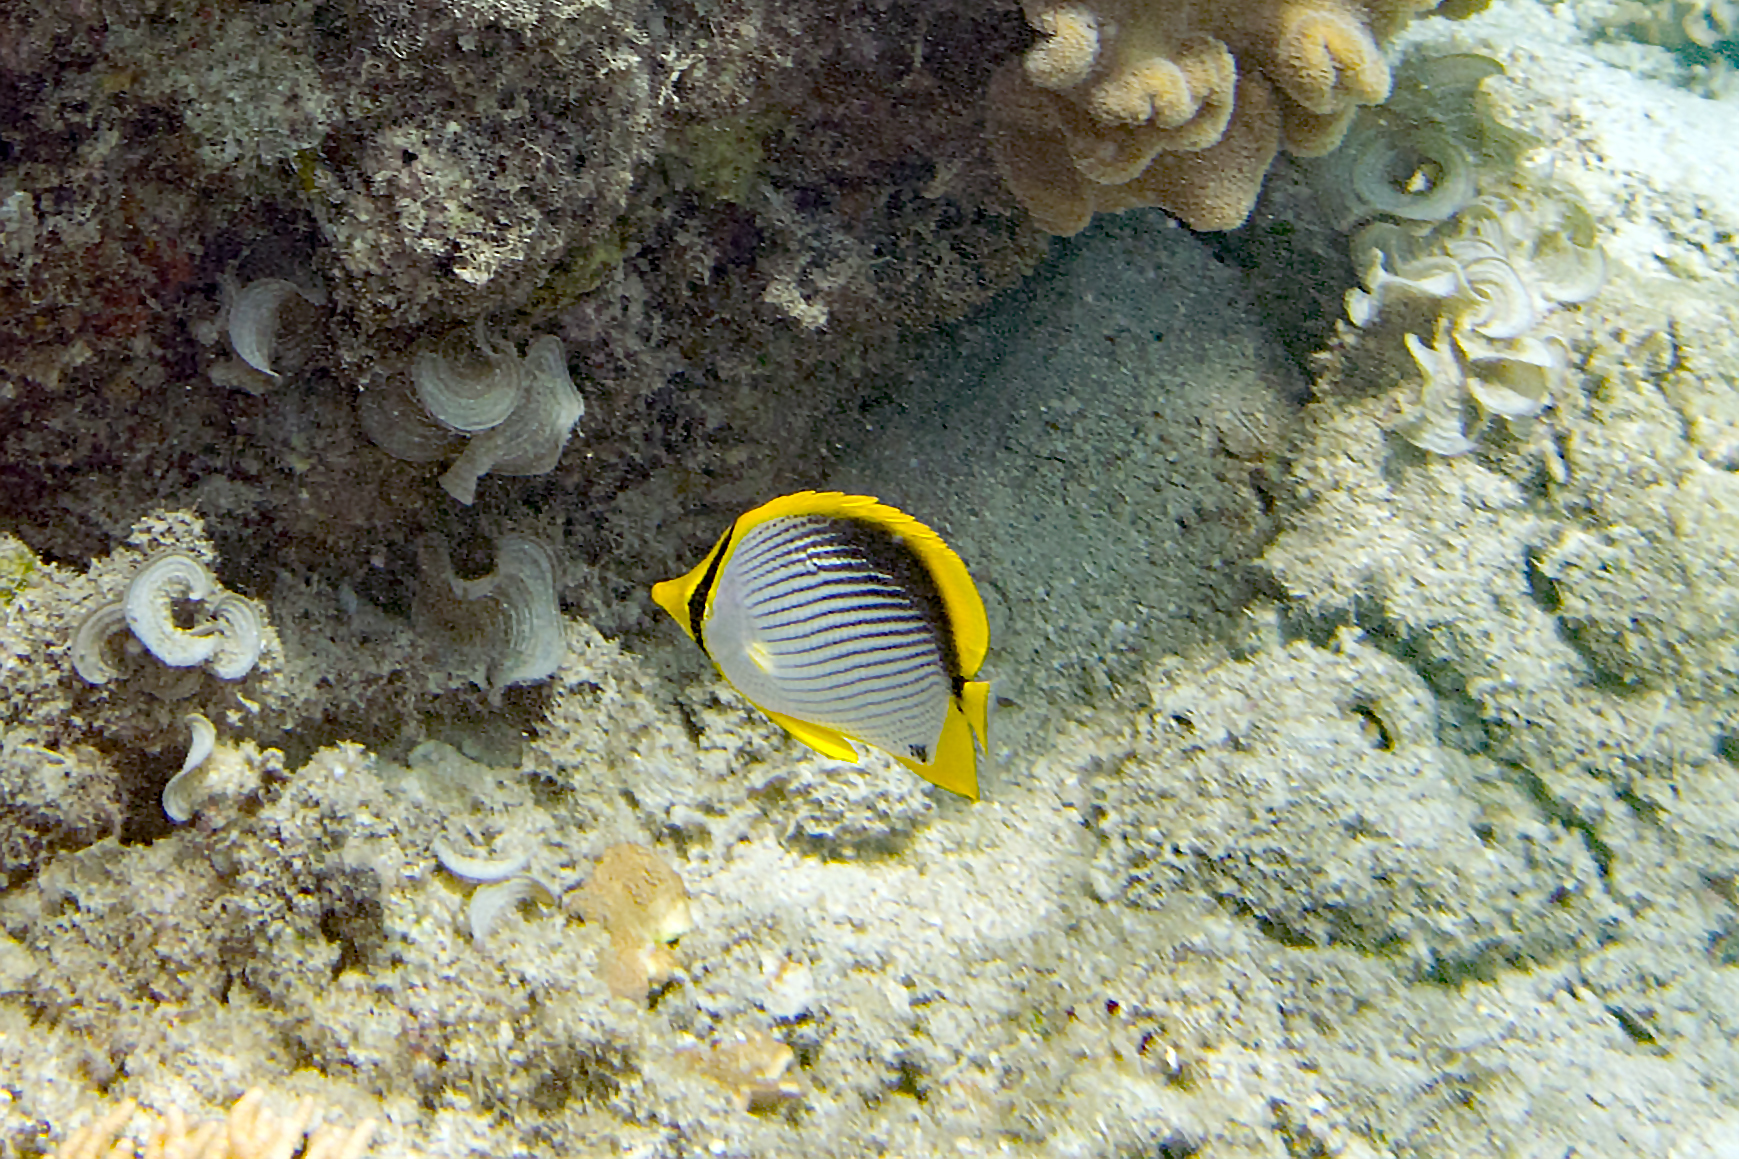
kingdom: Animalia
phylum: Chordata
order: Perciformes
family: Chaetodontidae
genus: Chaetodon
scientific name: Chaetodon melannotus
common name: Blackback butterflyfish
